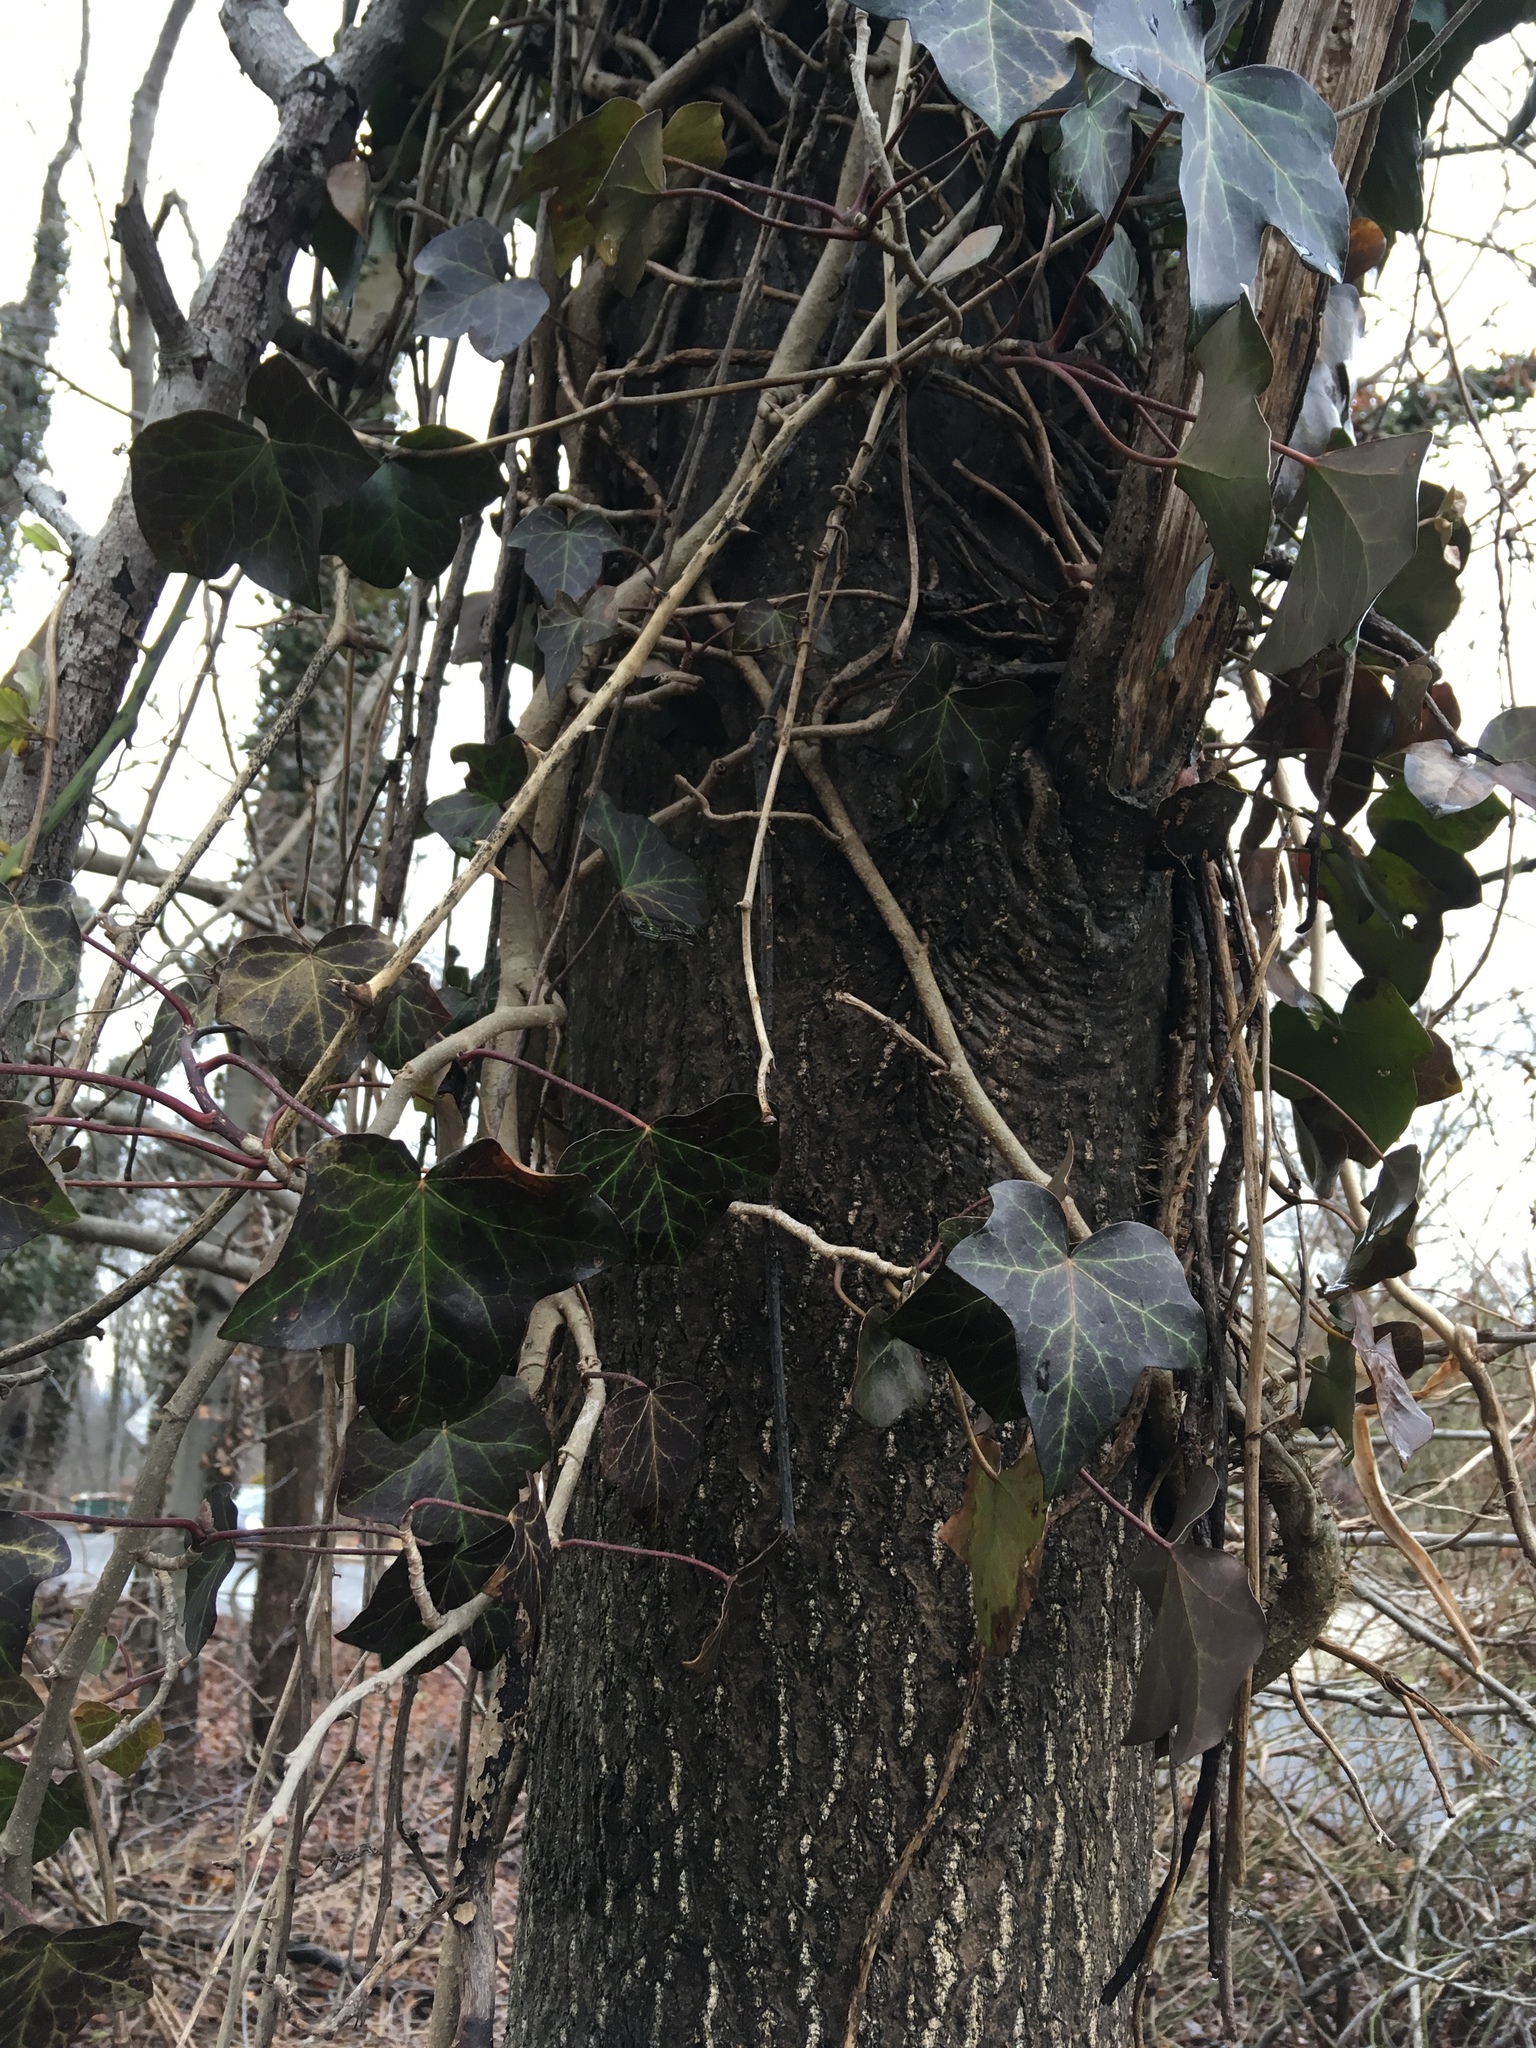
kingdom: Plantae
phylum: Tracheophyta
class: Magnoliopsida
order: Apiales
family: Araliaceae
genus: Hedera
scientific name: Hedera helix
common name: Ivy
